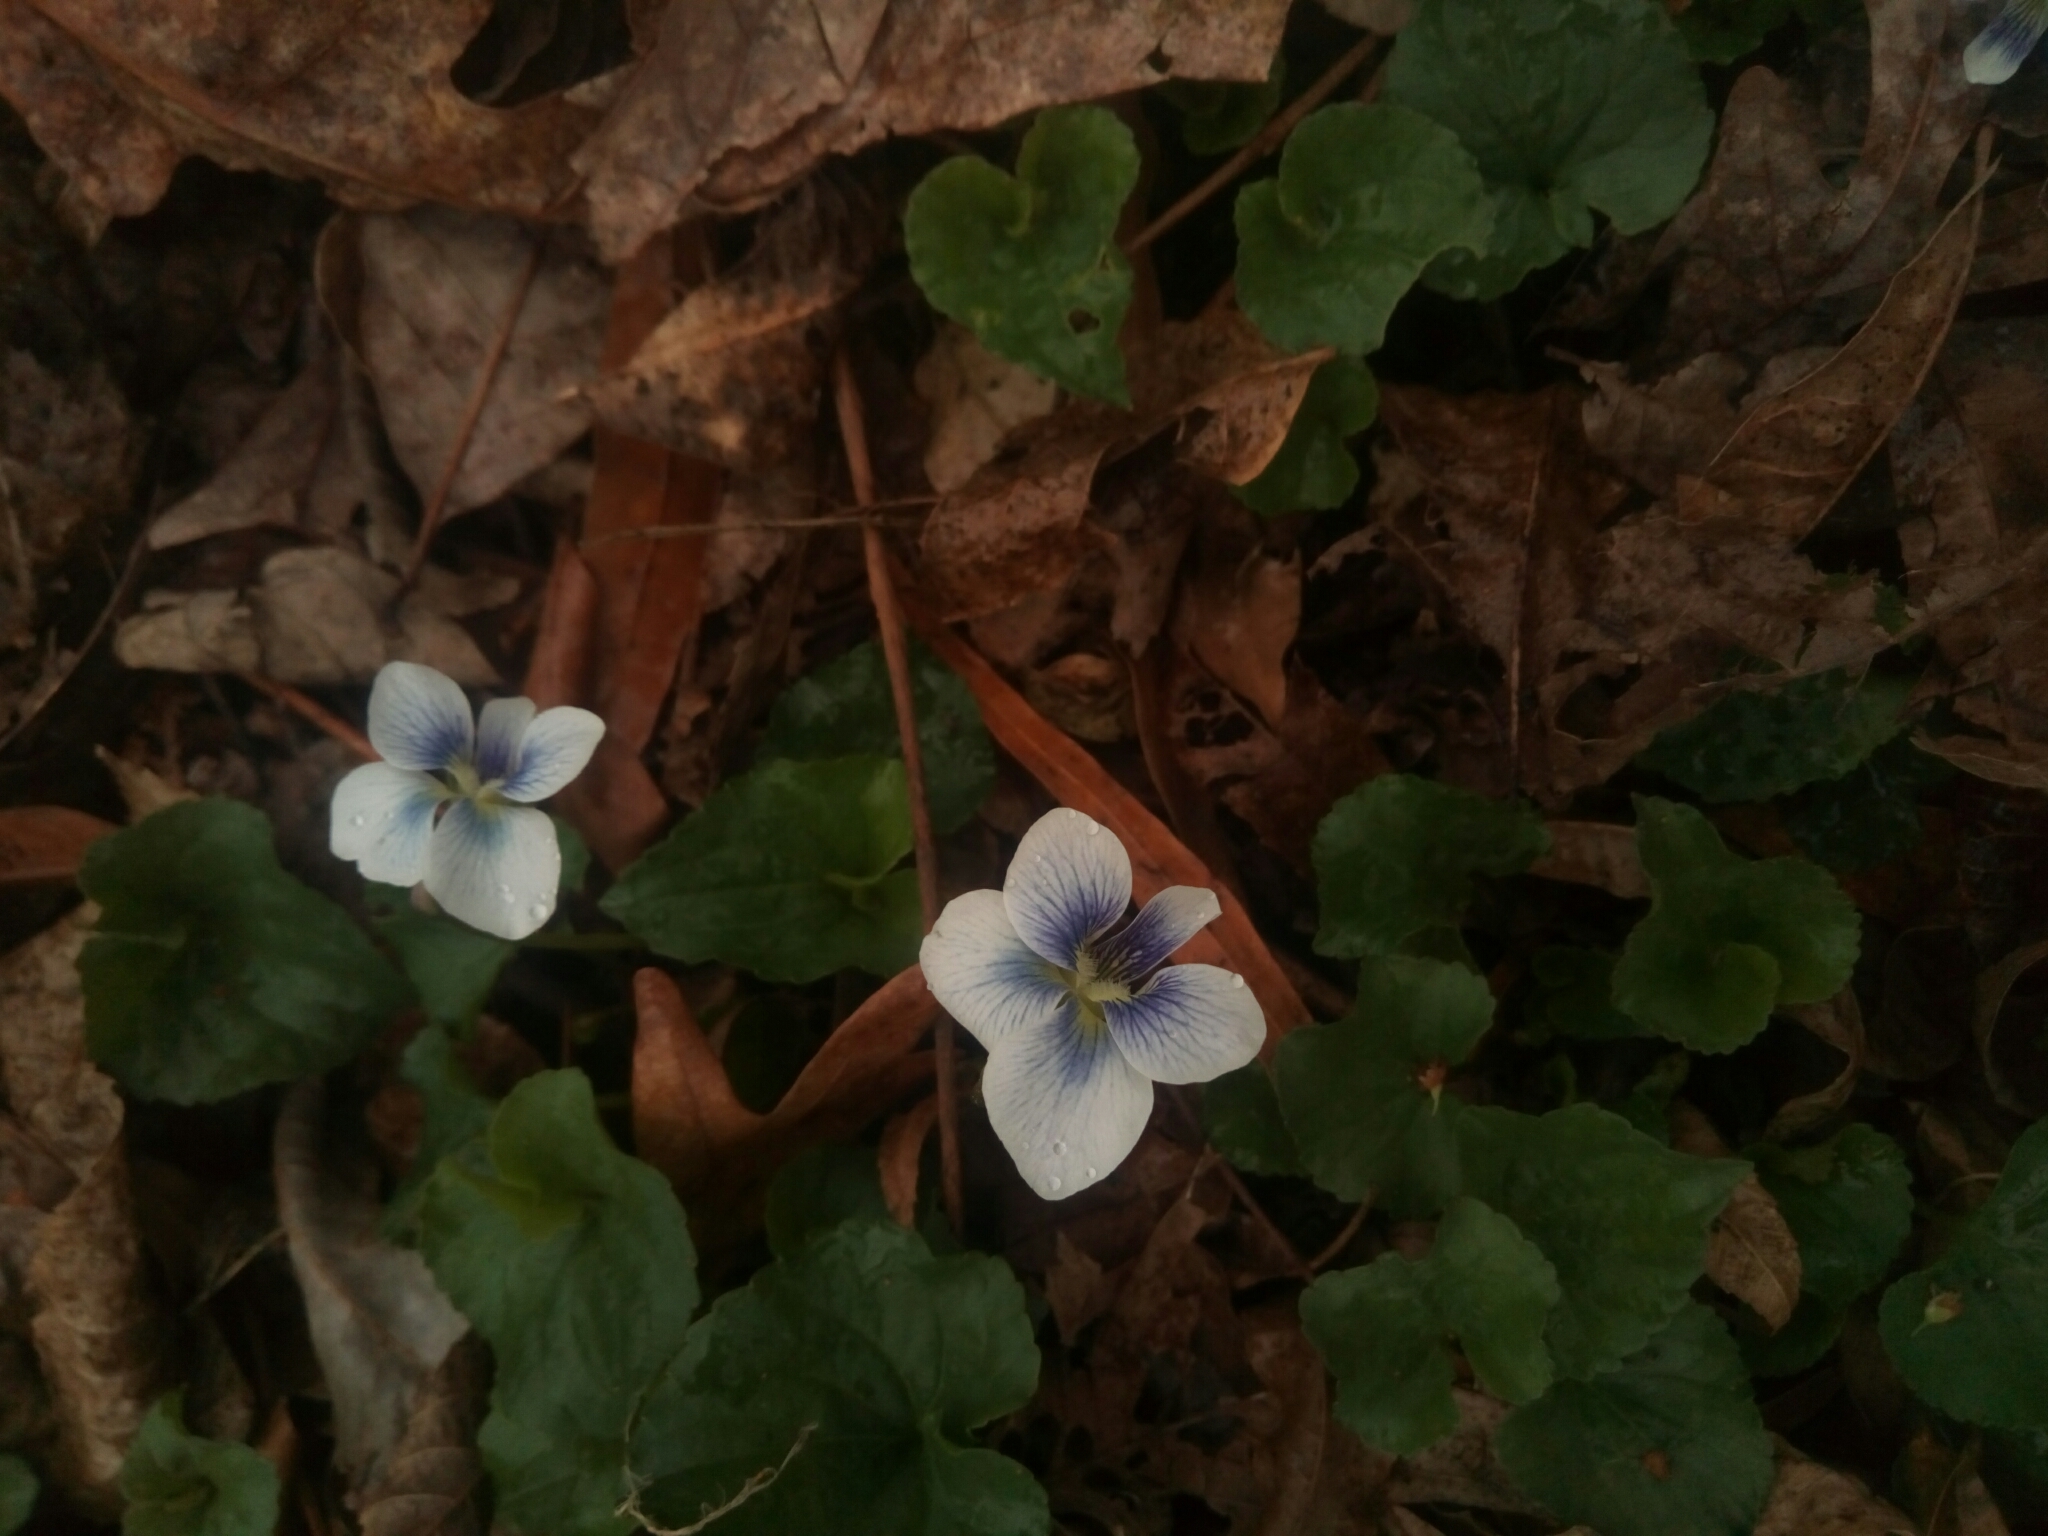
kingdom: Plantae
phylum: Tracheophyta
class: Magnoliopsida
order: Malpighiales
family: Violaceae
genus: Viola
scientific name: Viola sororia
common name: Dooryard violet
